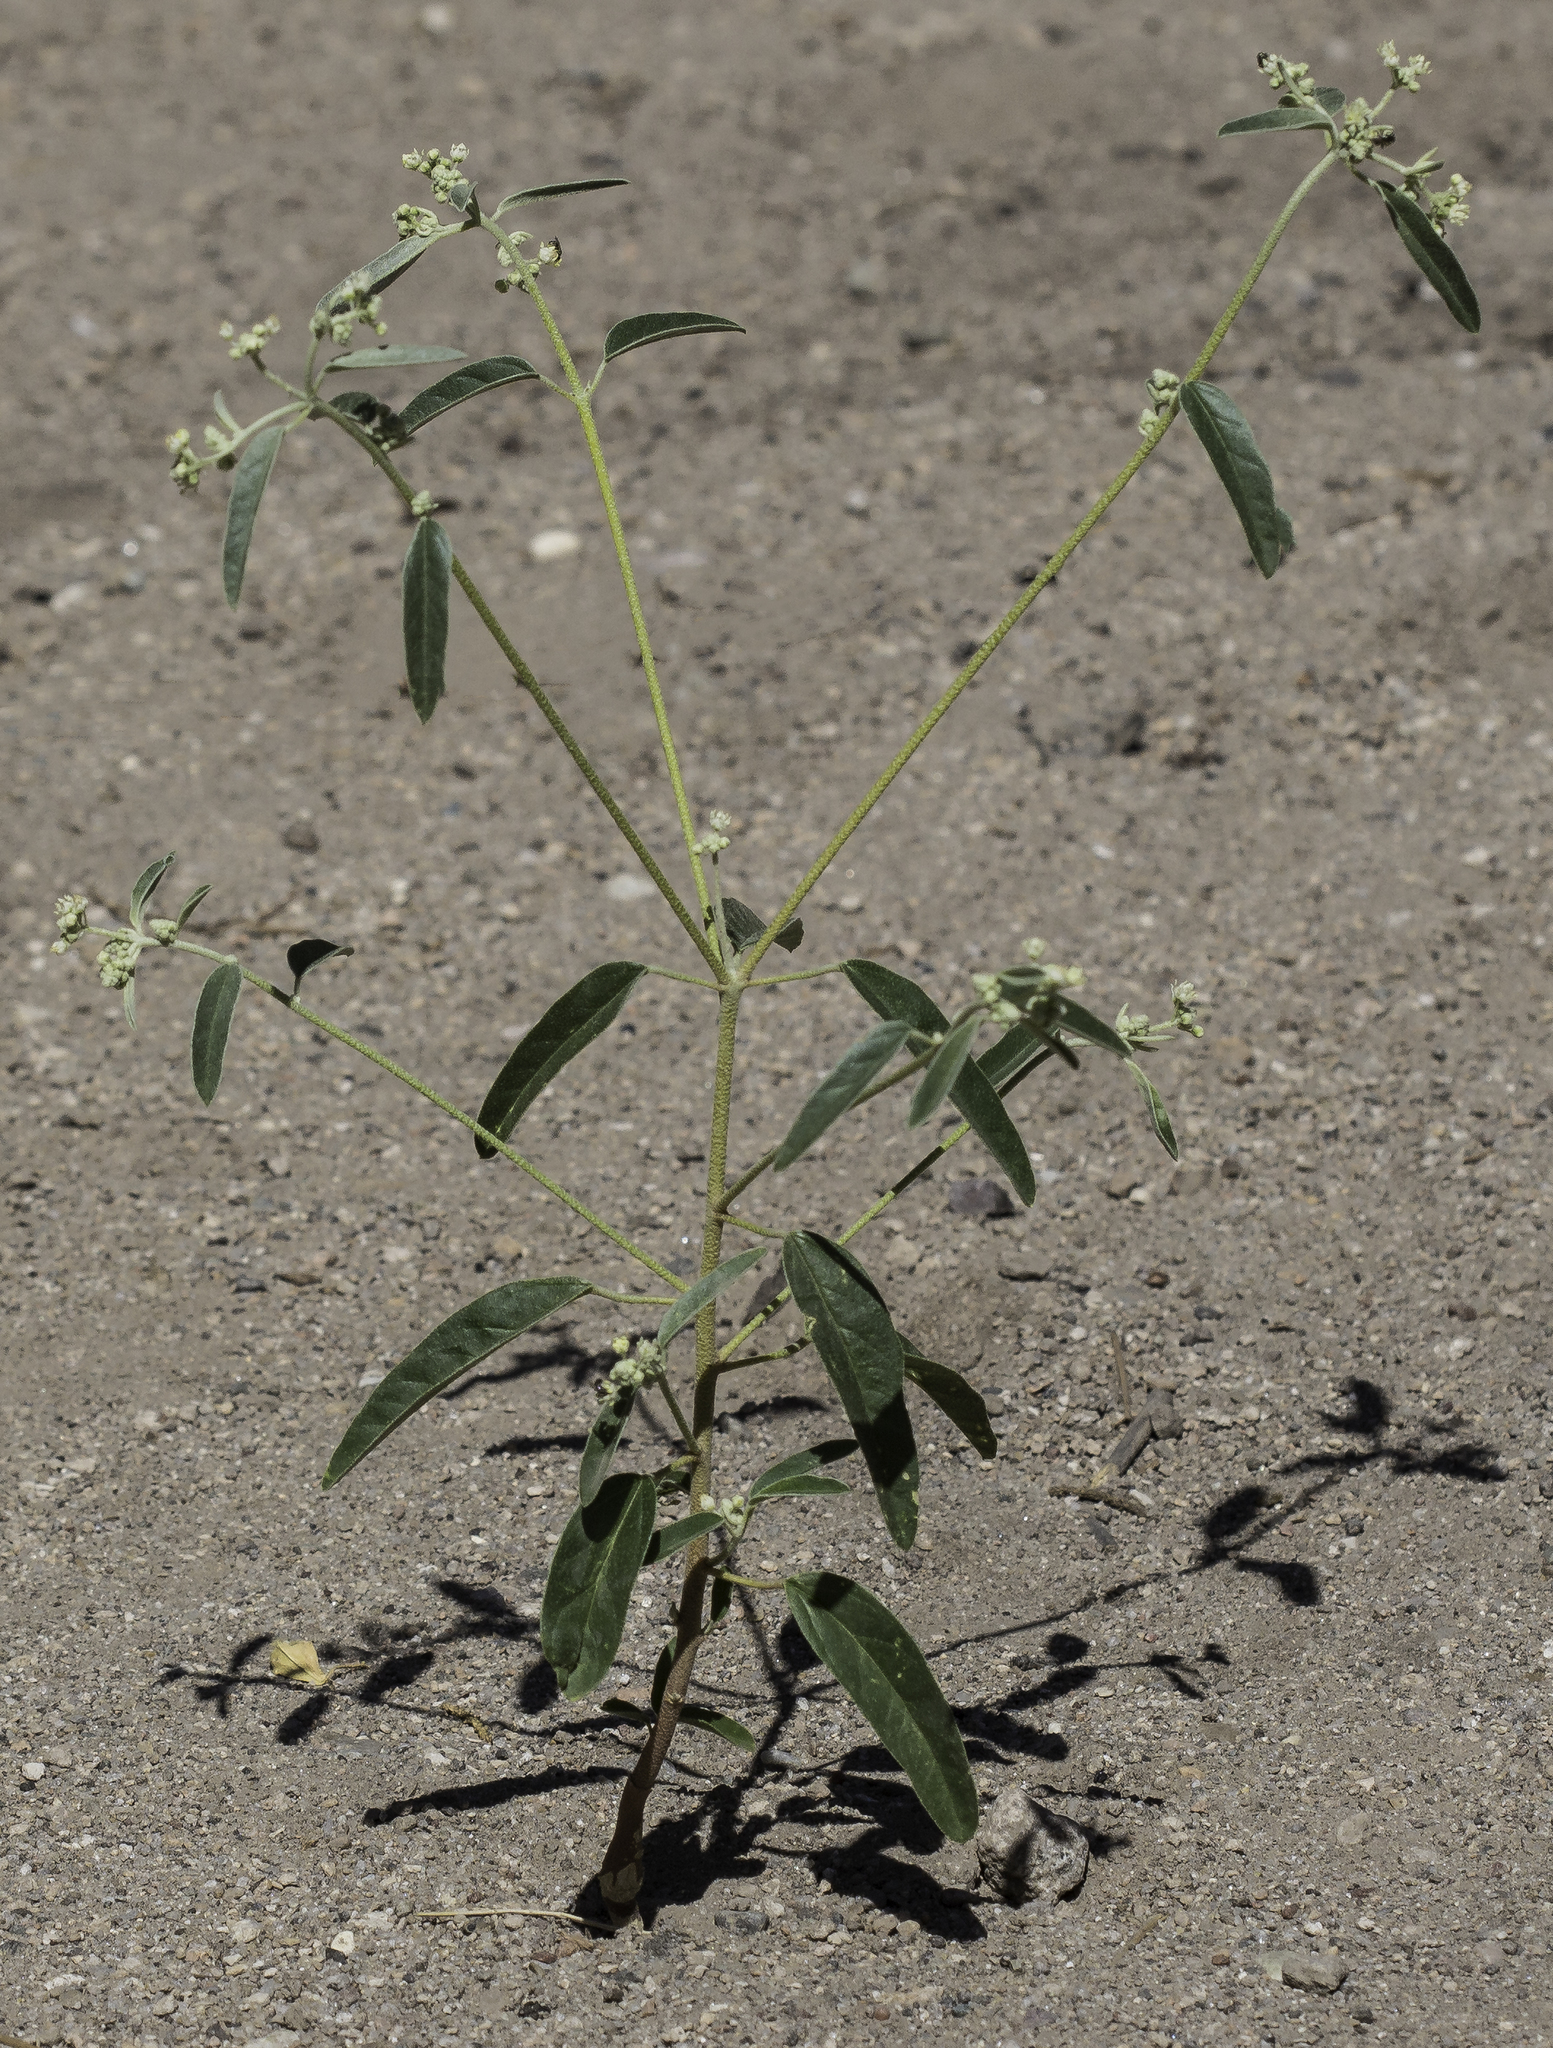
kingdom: Plantae
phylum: Tracheophyta
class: Magnoliopsida
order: Malpighiales
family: Euphorbiaceae
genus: Croton
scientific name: Croton texensis
